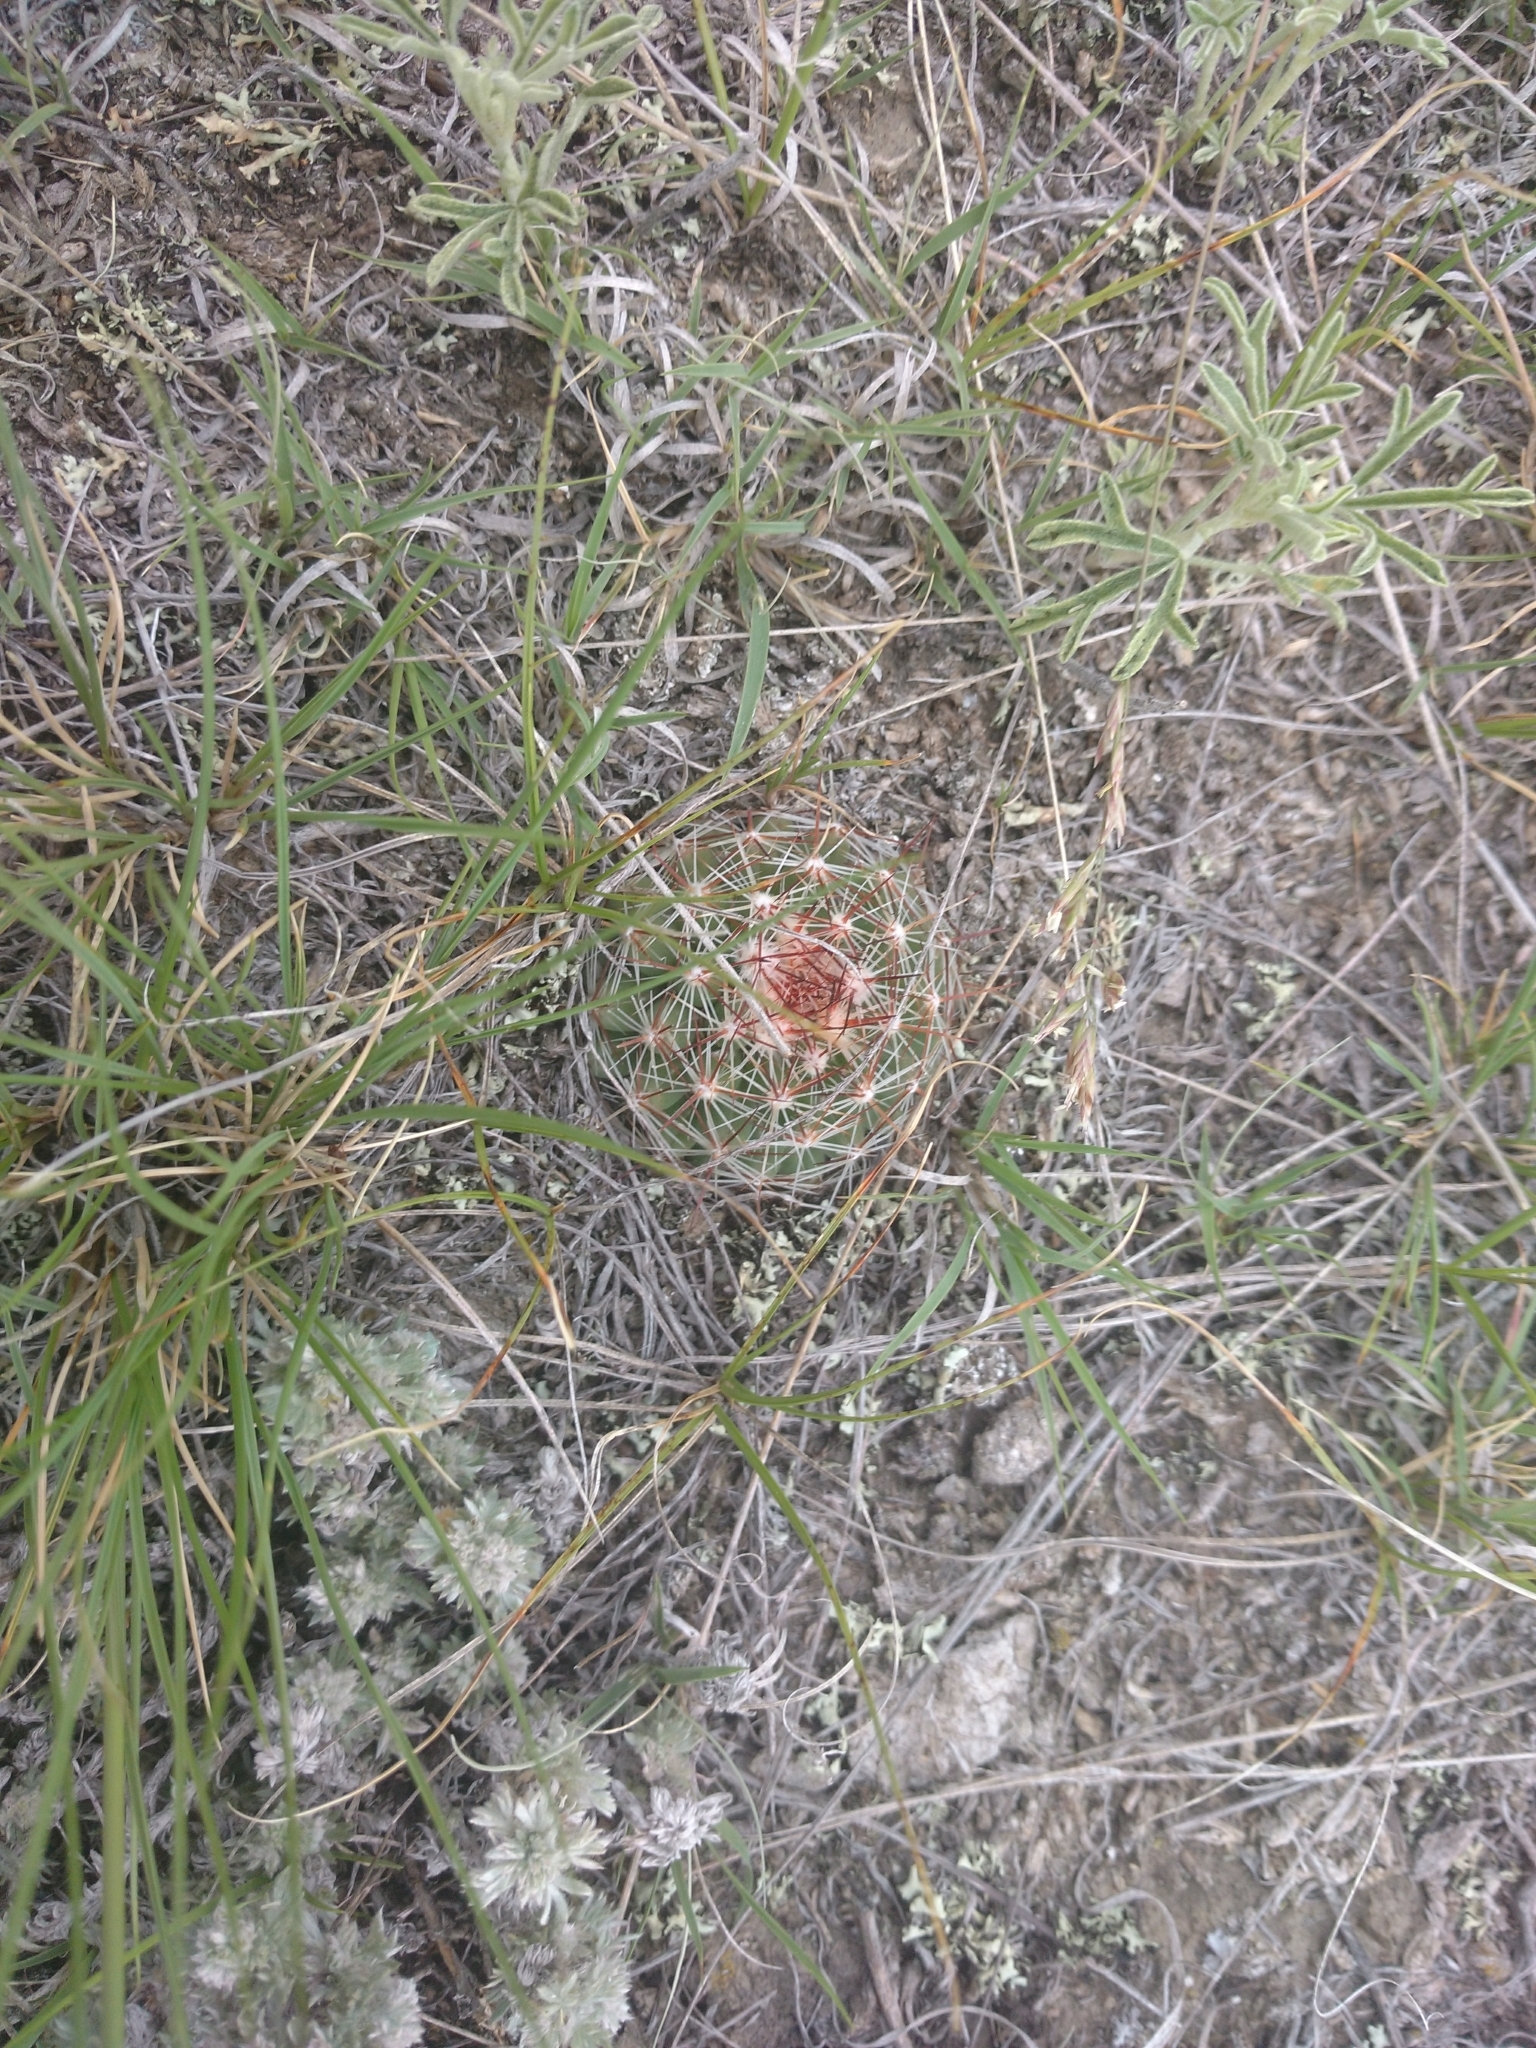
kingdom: Plantae
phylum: Tracheophyta
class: Magnoliopsida
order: Caryophyllales
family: Cactaceae
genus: Pelecyphora
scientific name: Pelecyphora vivipara
